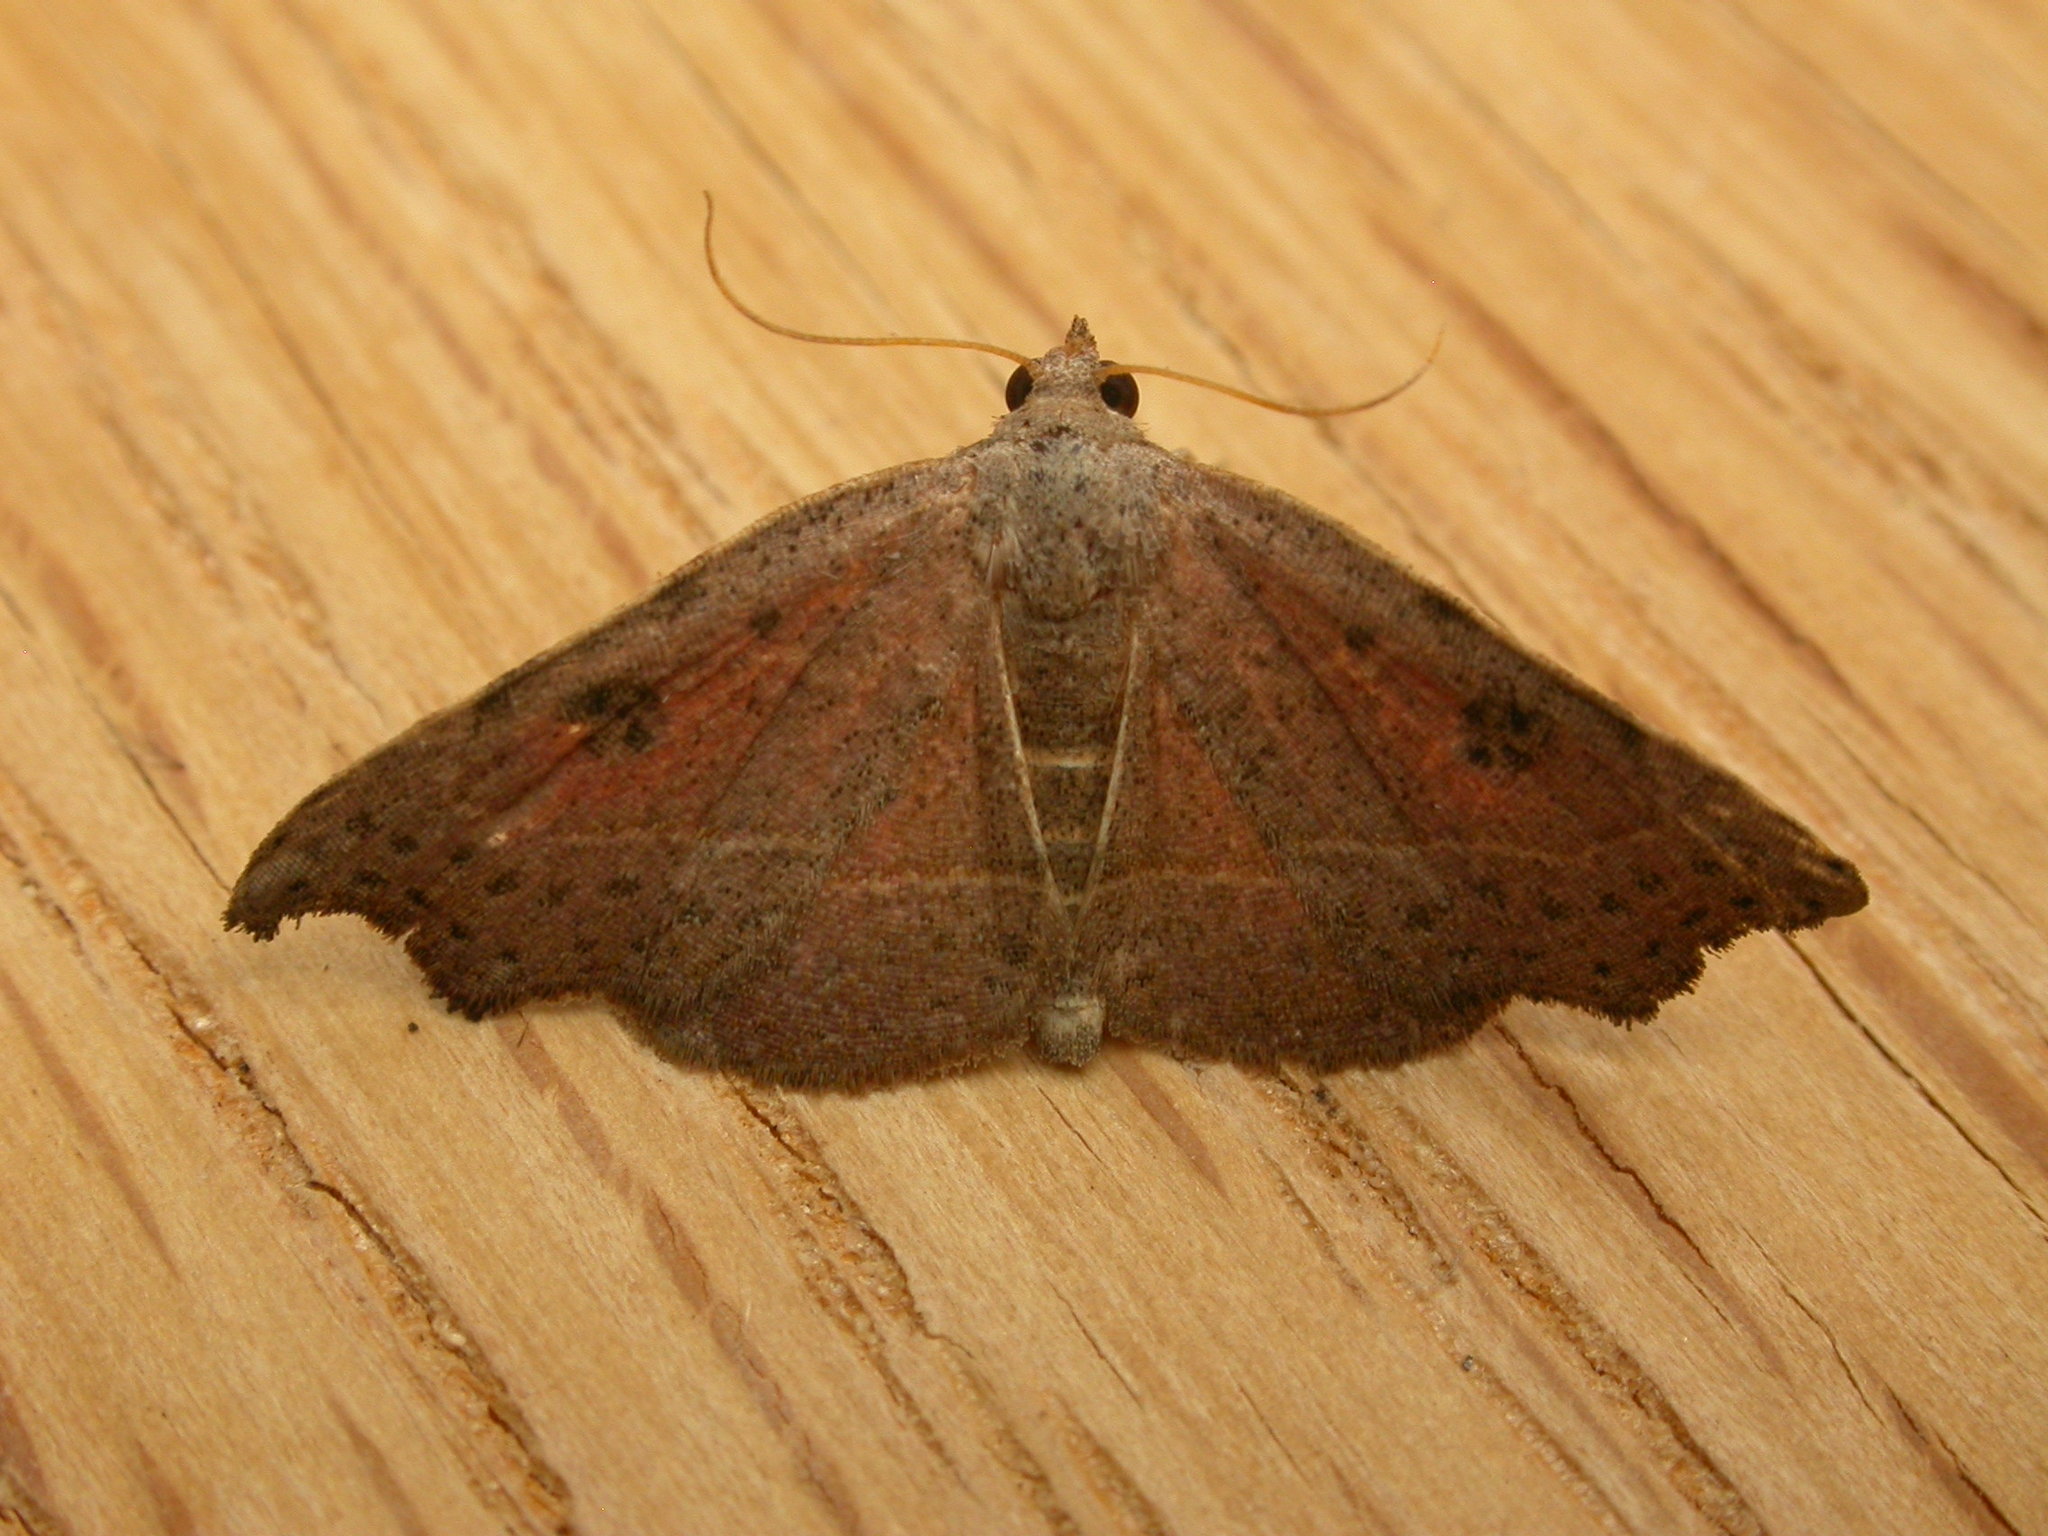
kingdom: Animalia
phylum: Arthropoda
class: Insecta
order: Lepidoptera
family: Erebidae
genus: Laspeyria
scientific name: Laspeyria concavata
